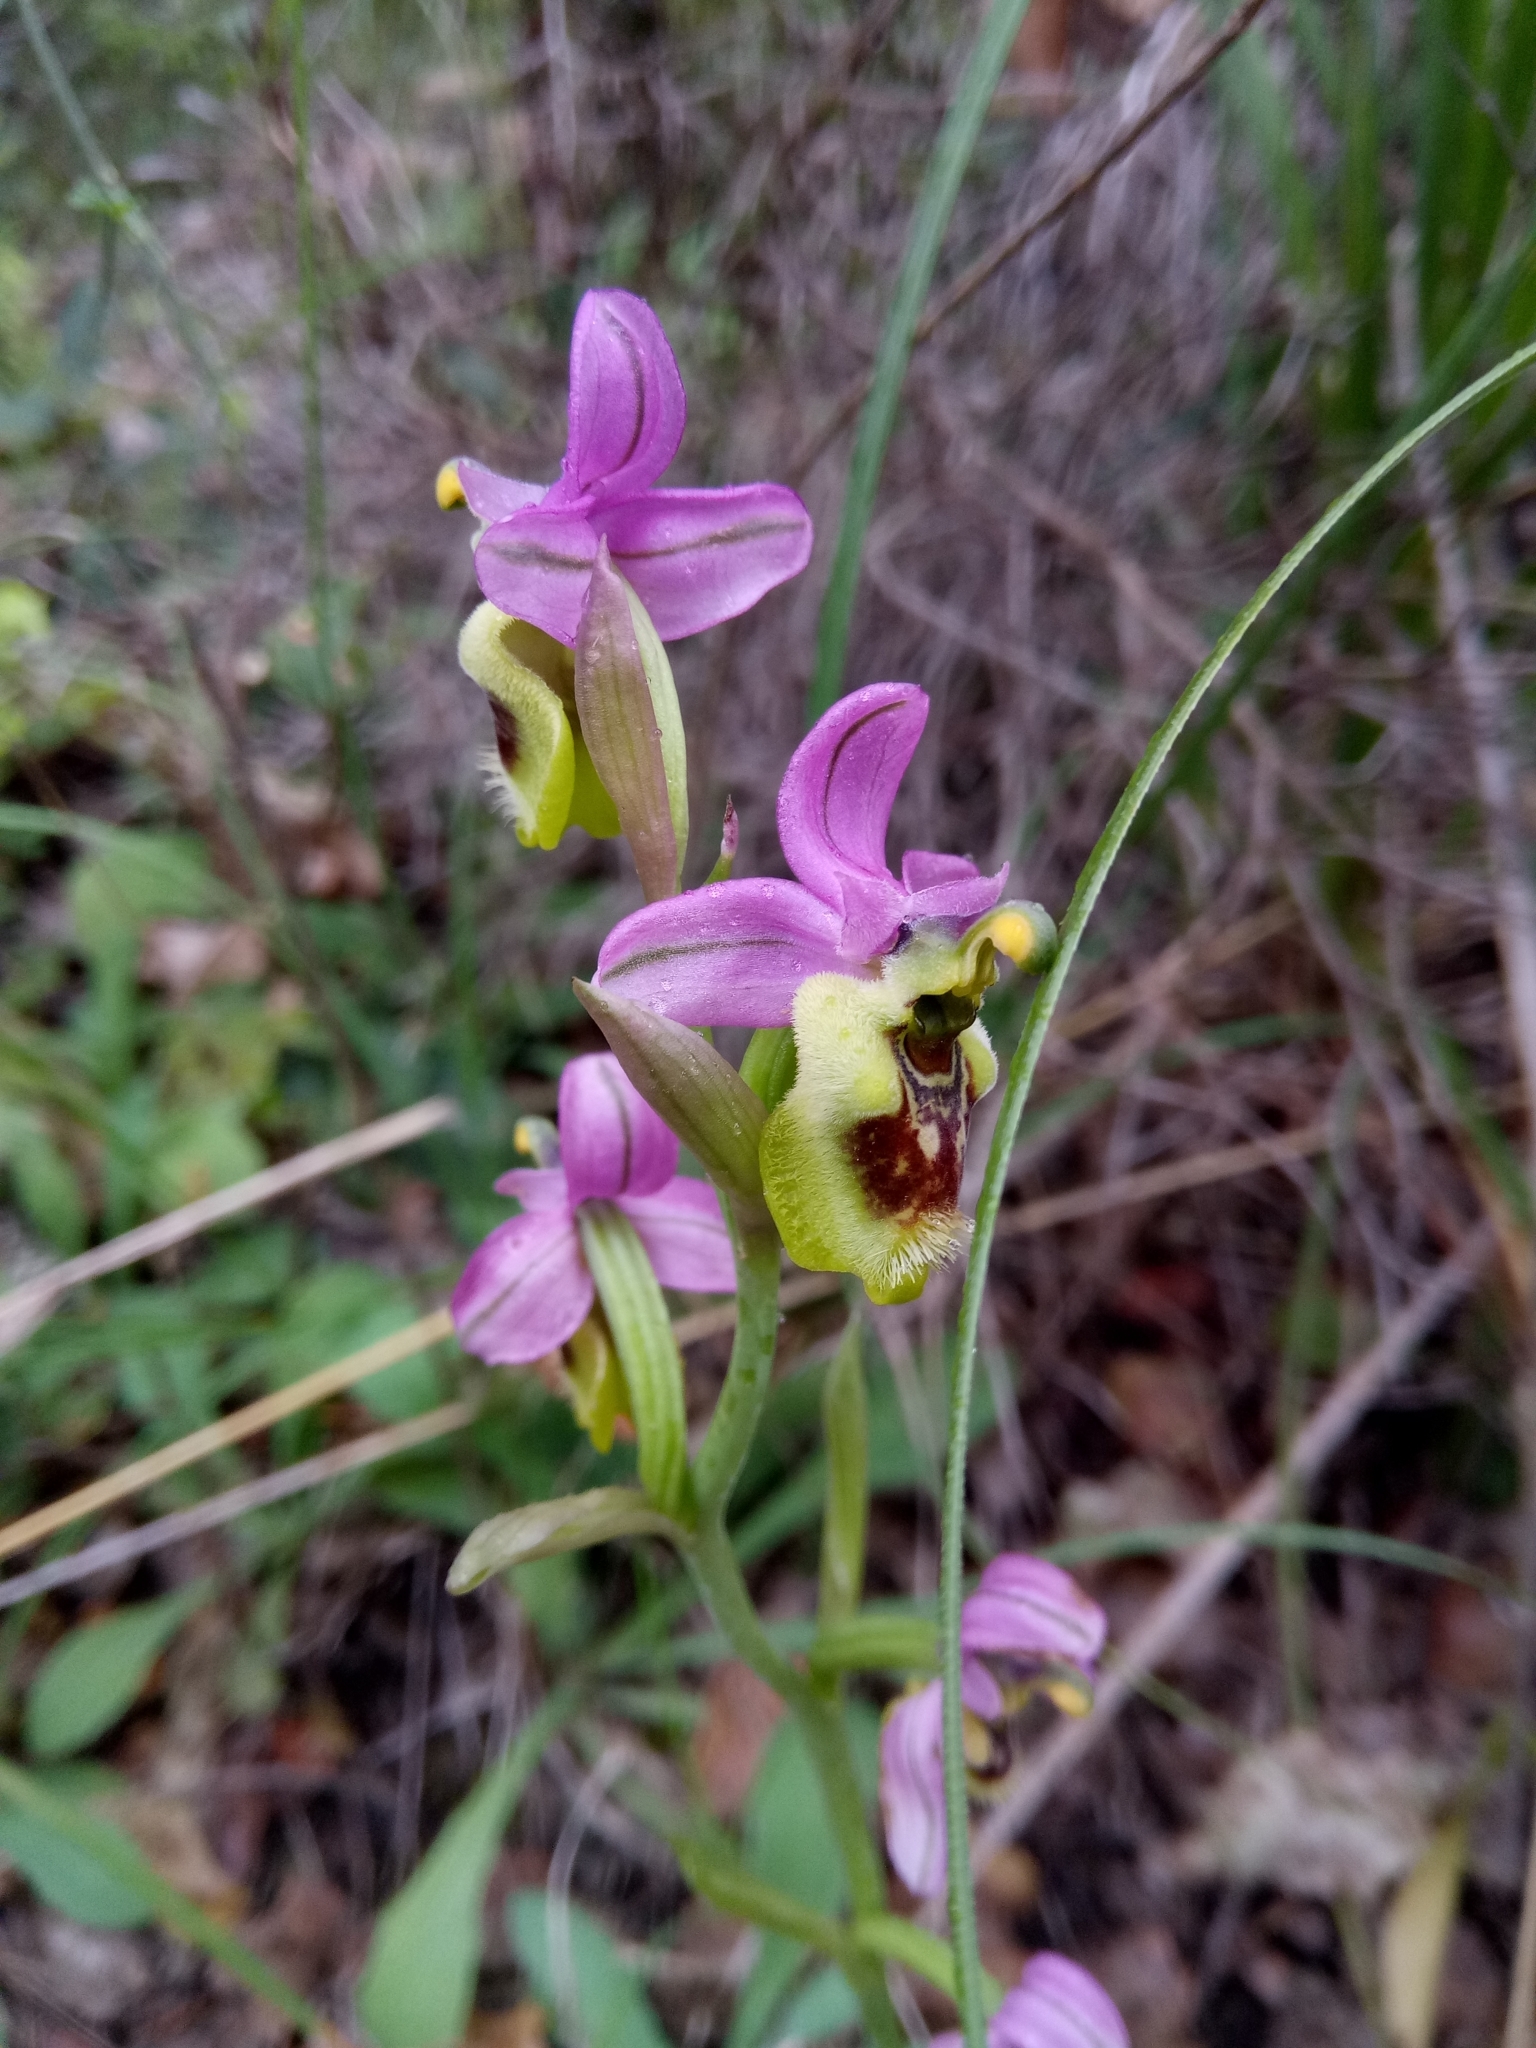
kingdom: Plantae
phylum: Tracheophyta
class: Liliopsida
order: Asparagales
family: Orchidaceae
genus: Ophrys
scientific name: Ophrys tenthredinifera
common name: Sawfly orchid
